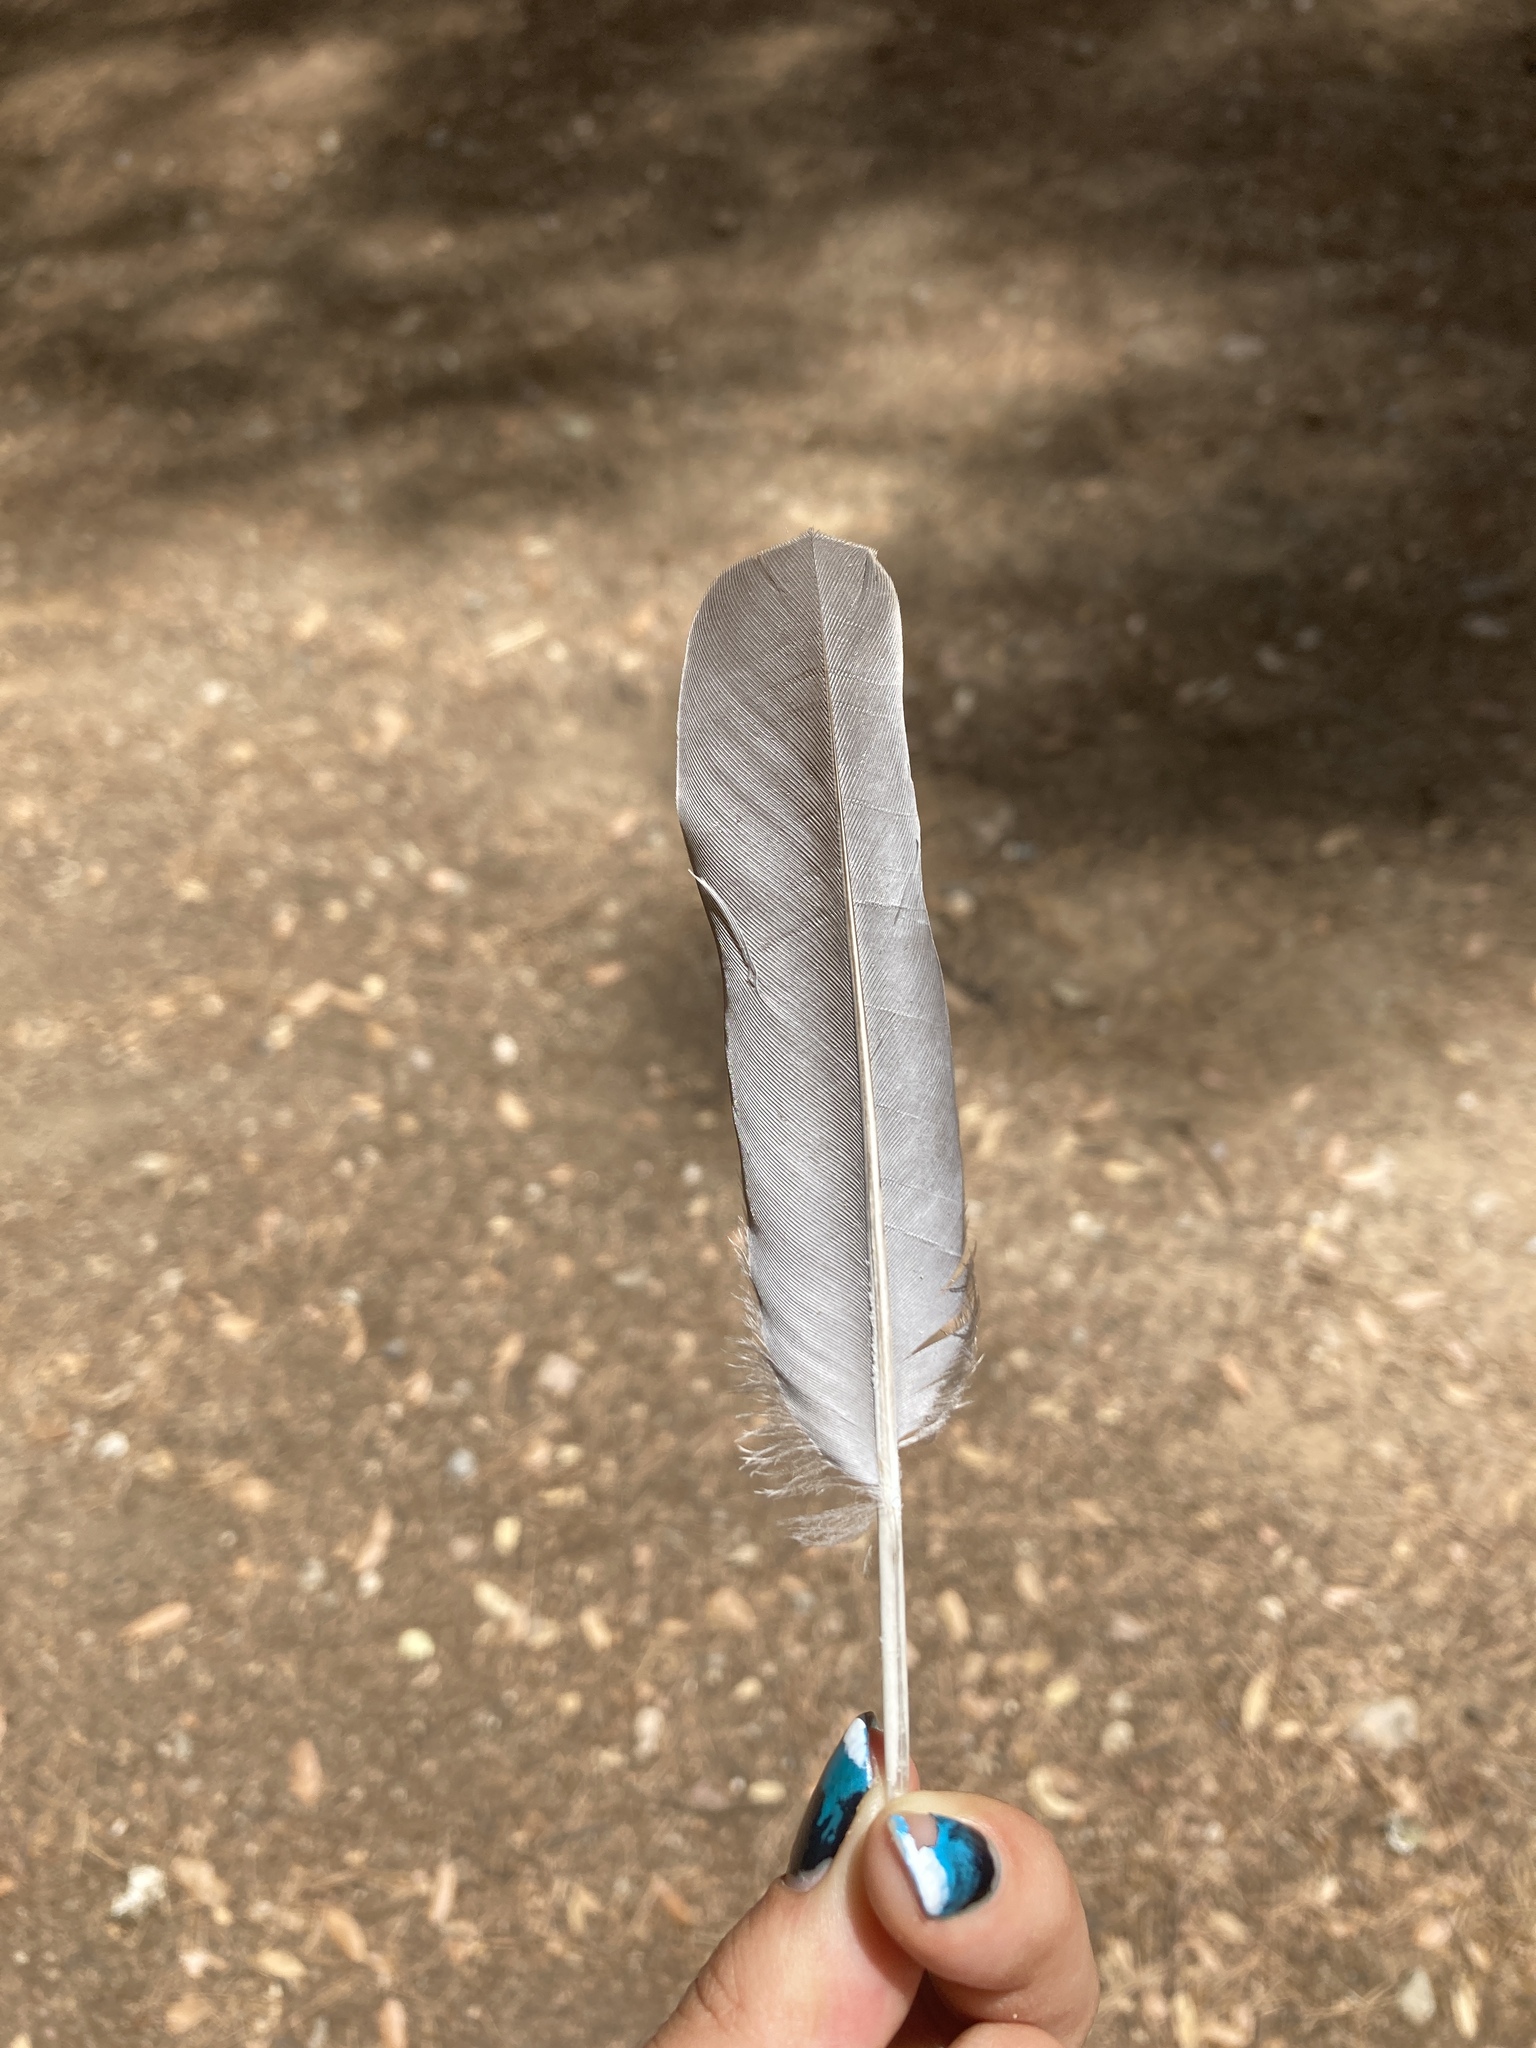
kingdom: Animalia
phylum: Chordata
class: Aves
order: Columbiformes
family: Columbidae
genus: Columba
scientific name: Columba palumbus
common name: Common wood pigeon
